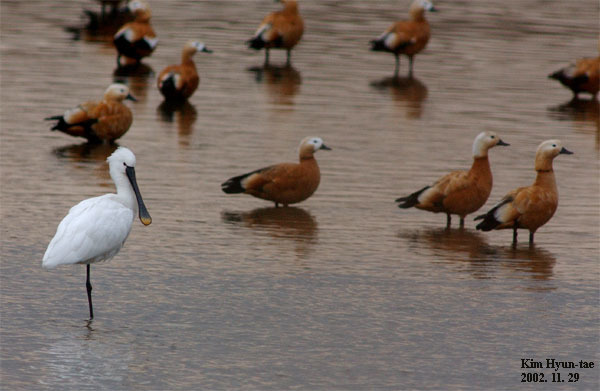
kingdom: Animalia
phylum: Chordata
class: Aves
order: Pelecaniformes
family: Threskiornithidae
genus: Platalea
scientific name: Platalea leucorodia
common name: Eurasian spoonbill
